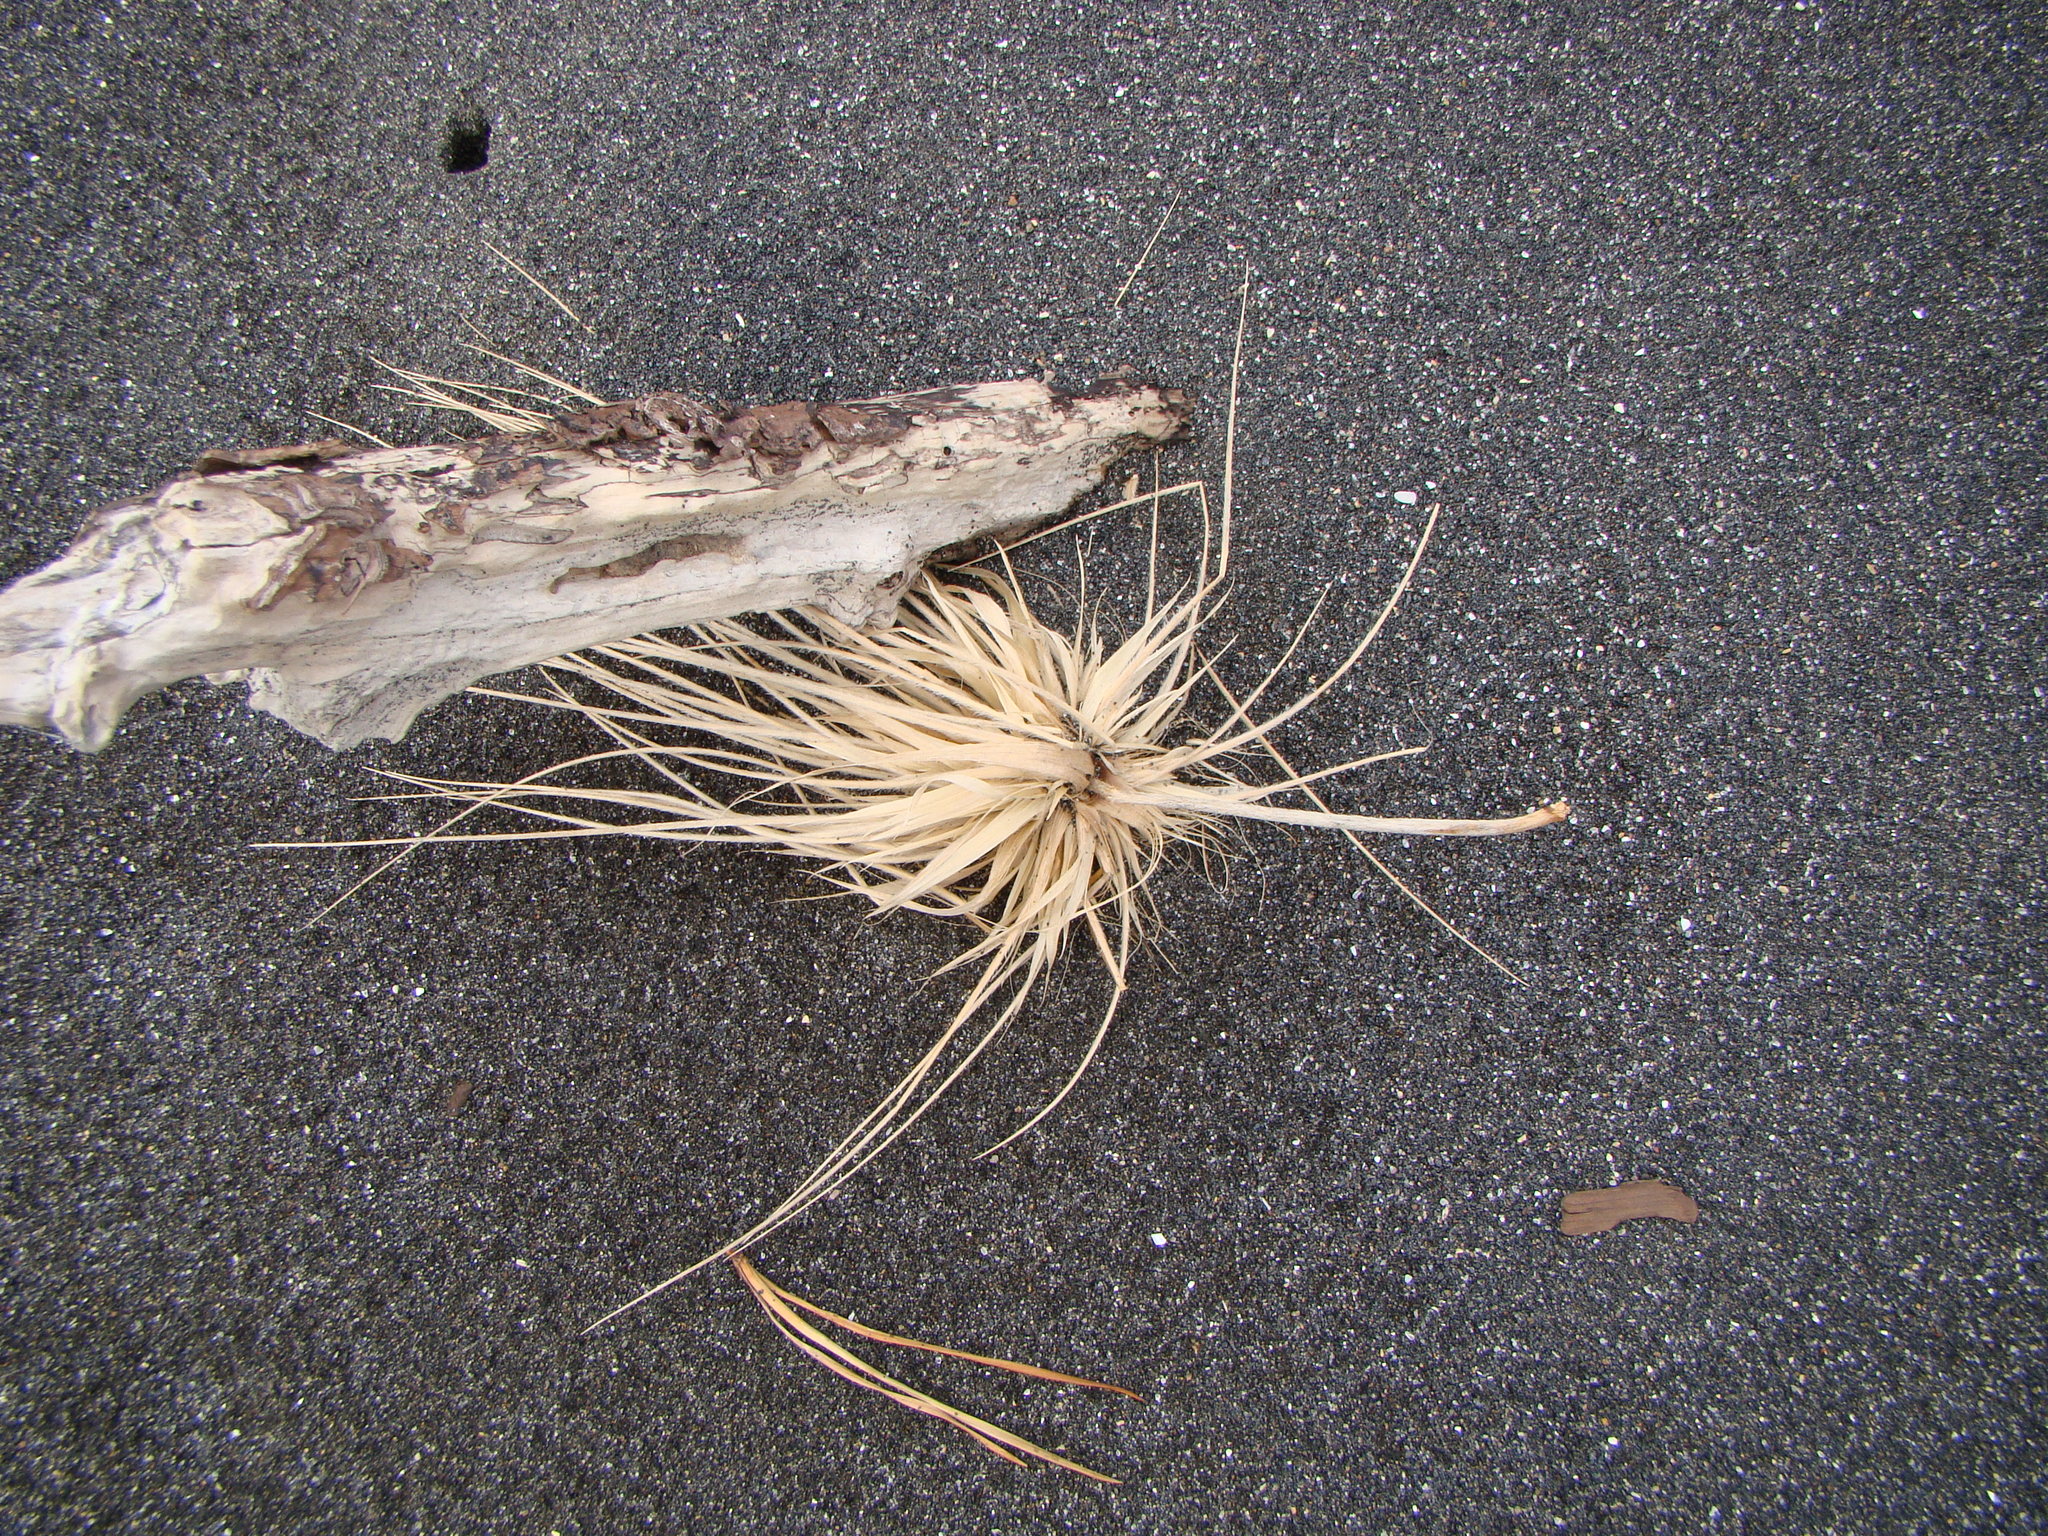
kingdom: Plantae
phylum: Tracheophyta
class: Liliopsida
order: Poales
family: Poaceae
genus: Spinifex
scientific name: Spinifex sericeus
